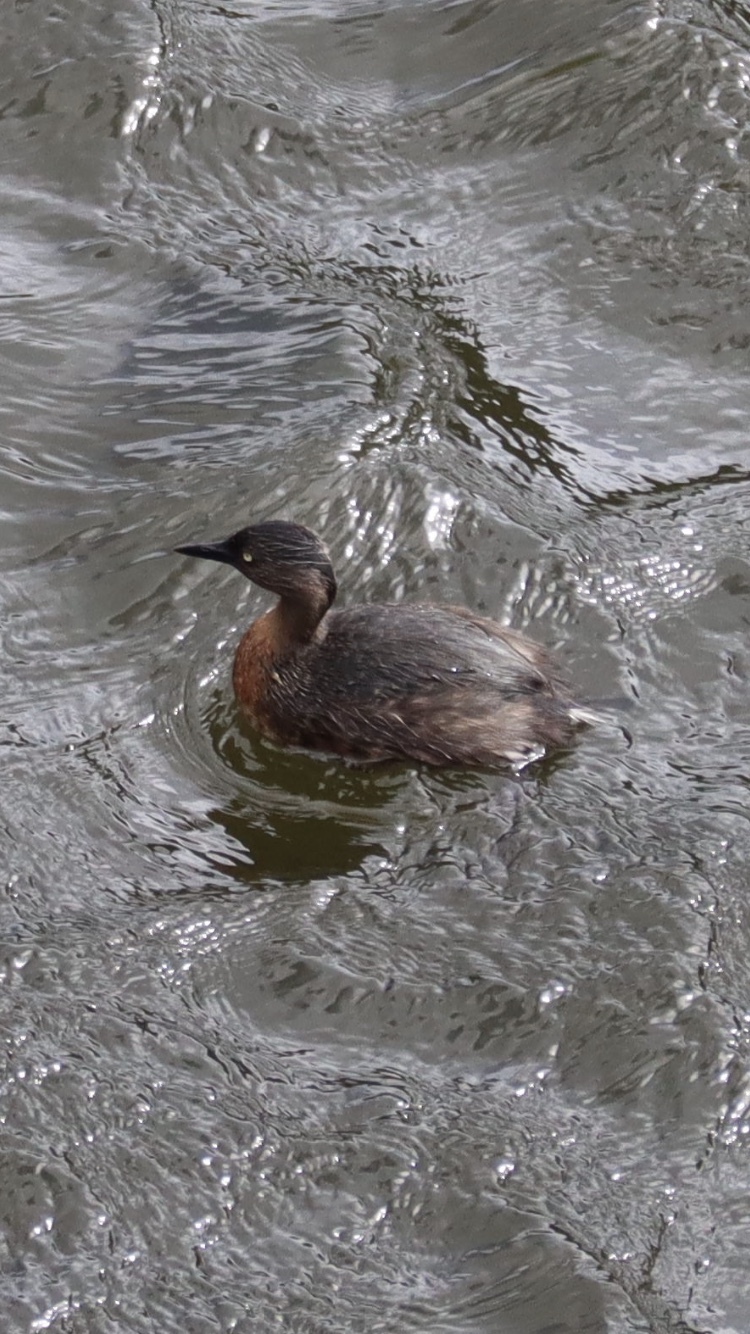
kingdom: Animalia
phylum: Chordata
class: Aves
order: Podicipediformes
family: Podicipedidae
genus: Poliocephalus
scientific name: Poliocephalus rufopectus
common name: New zealand grebe
